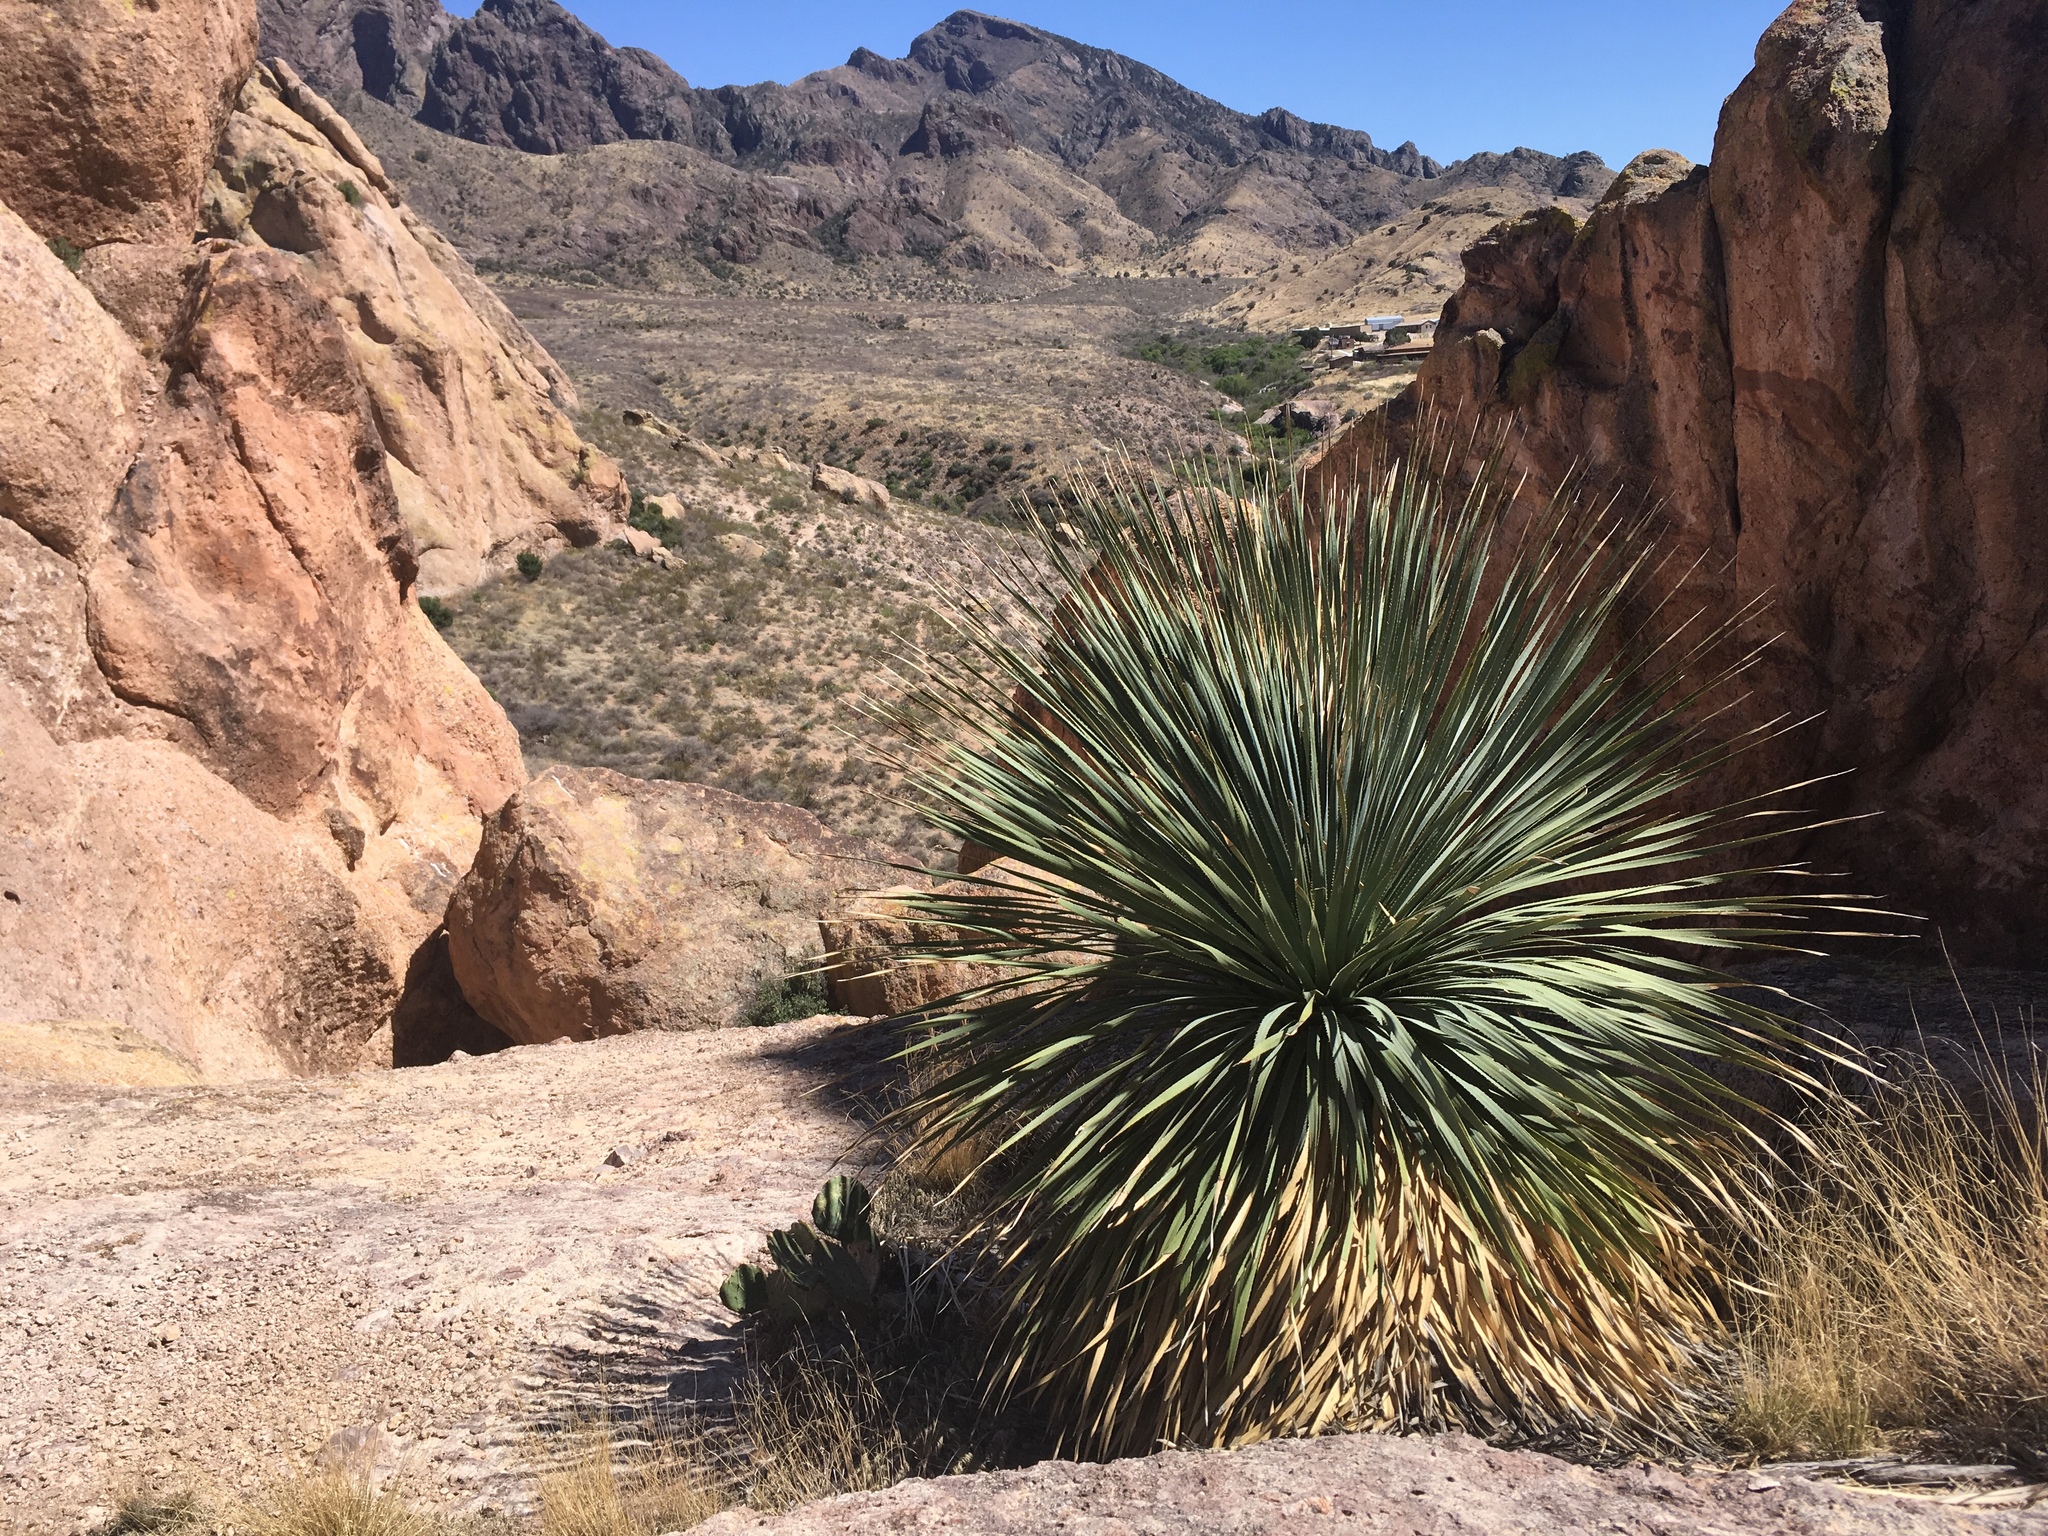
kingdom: Plantae
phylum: Tracheophyta
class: Liliopsida
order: Asparagales
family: Asparagaceae
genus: Dasylirion
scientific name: Dasylirion wheeleri
